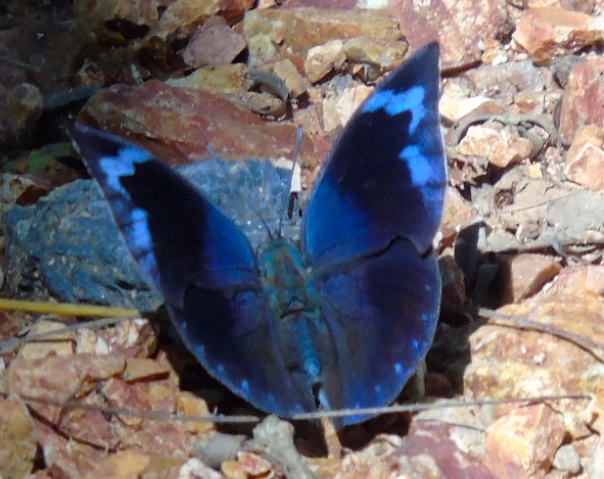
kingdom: Animalia
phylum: Arthropoda
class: Insecta
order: Lepidoptera
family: Nymphalidae
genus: Memphis
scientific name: Memphis forreri
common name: Forrer's leafwing
